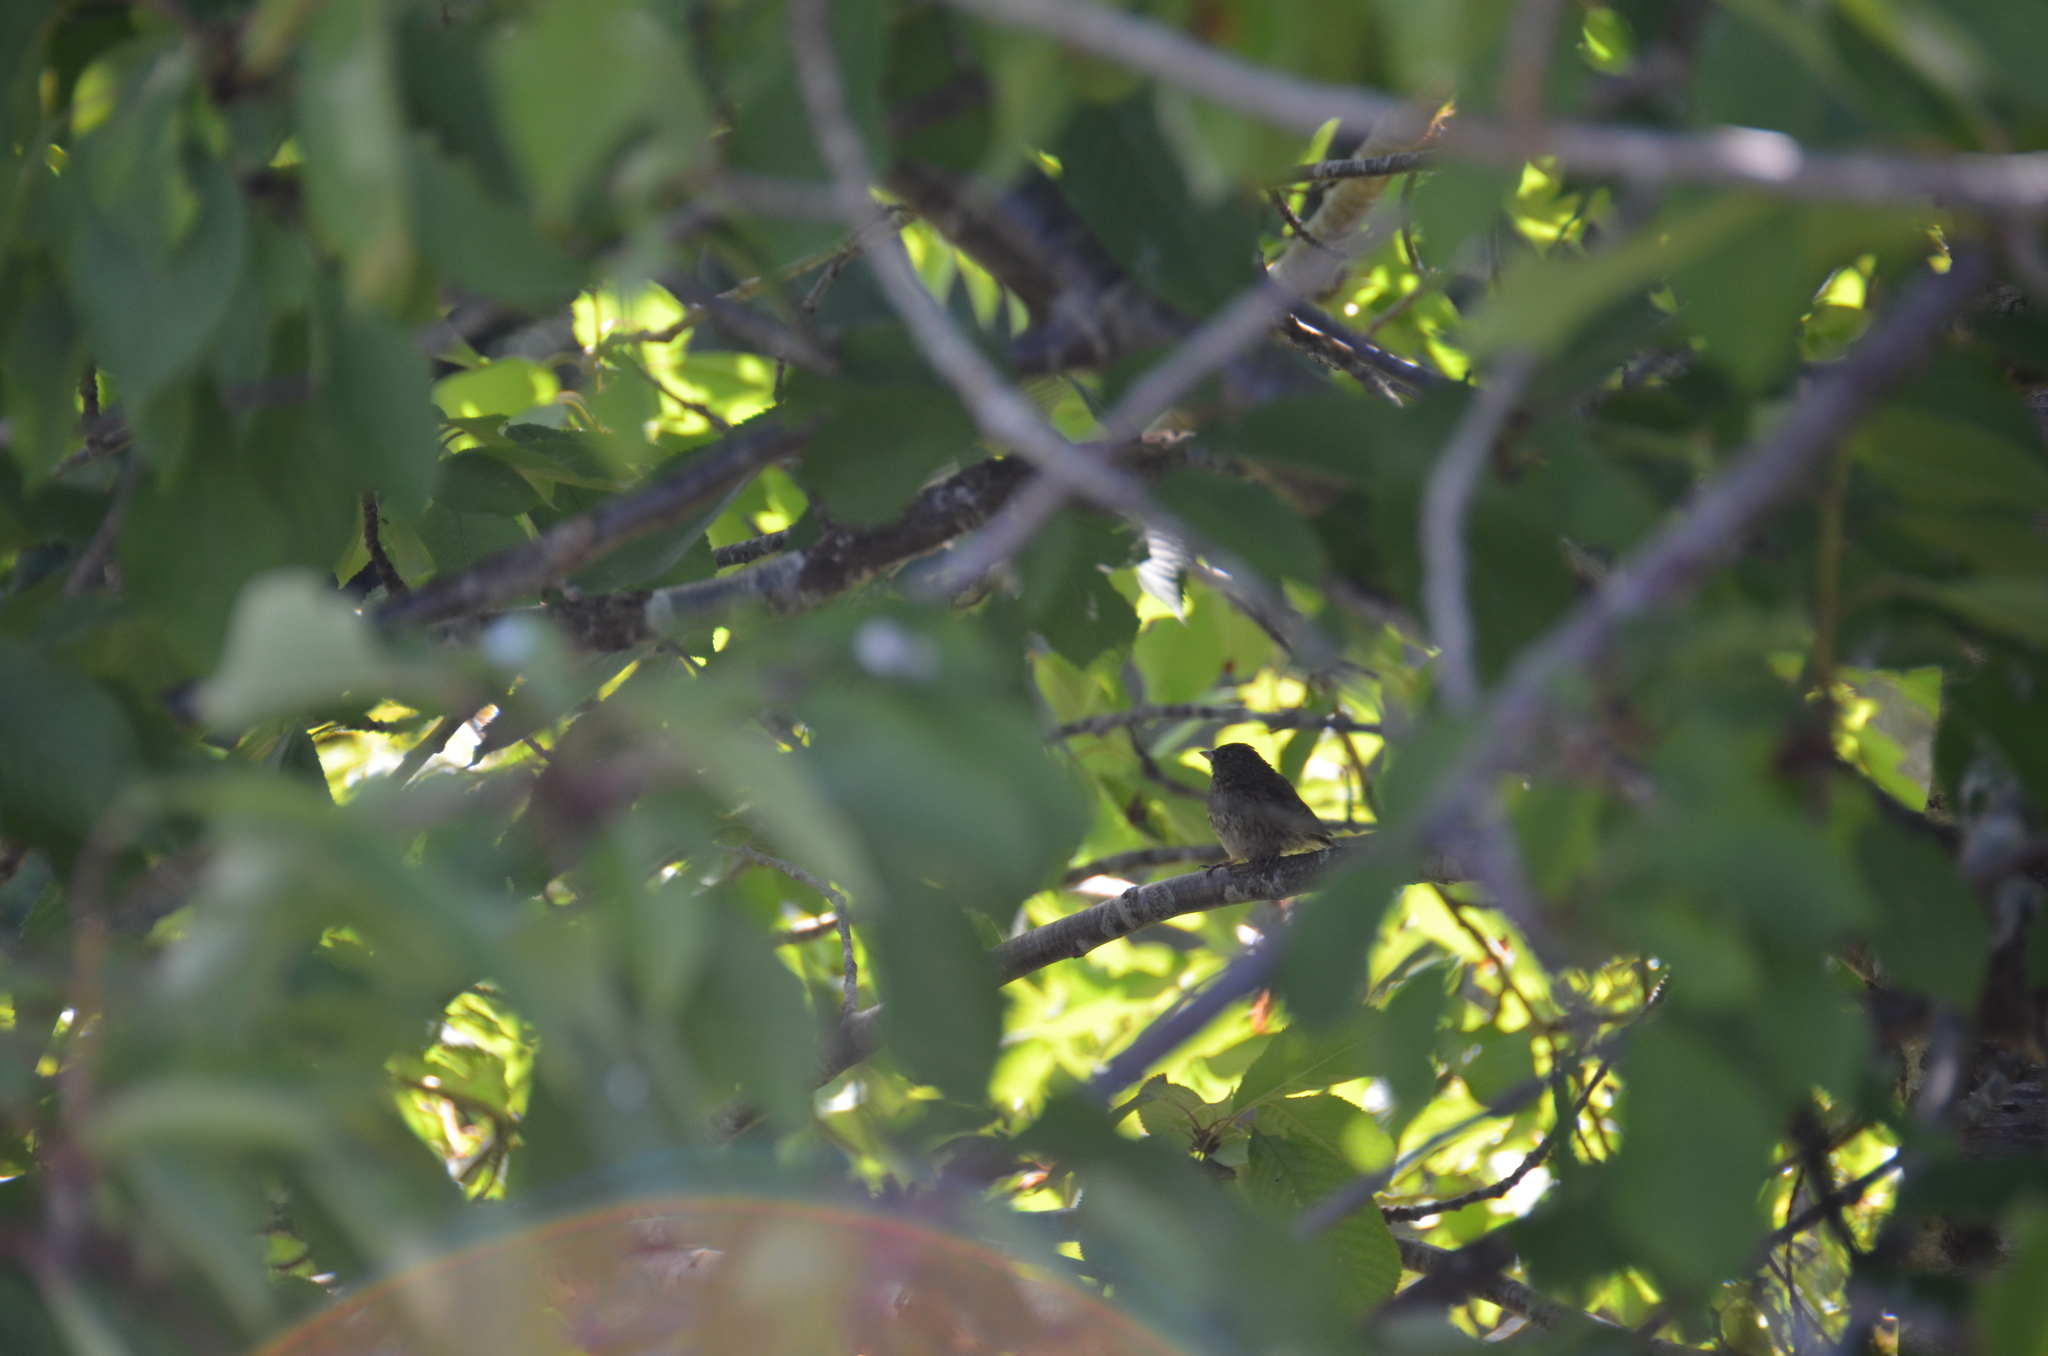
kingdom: Animalia
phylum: Chordata
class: Aves
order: Passeriformes
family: Passerellidae
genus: Junco
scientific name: Junco hyemalis
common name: Dark-eyed junco
